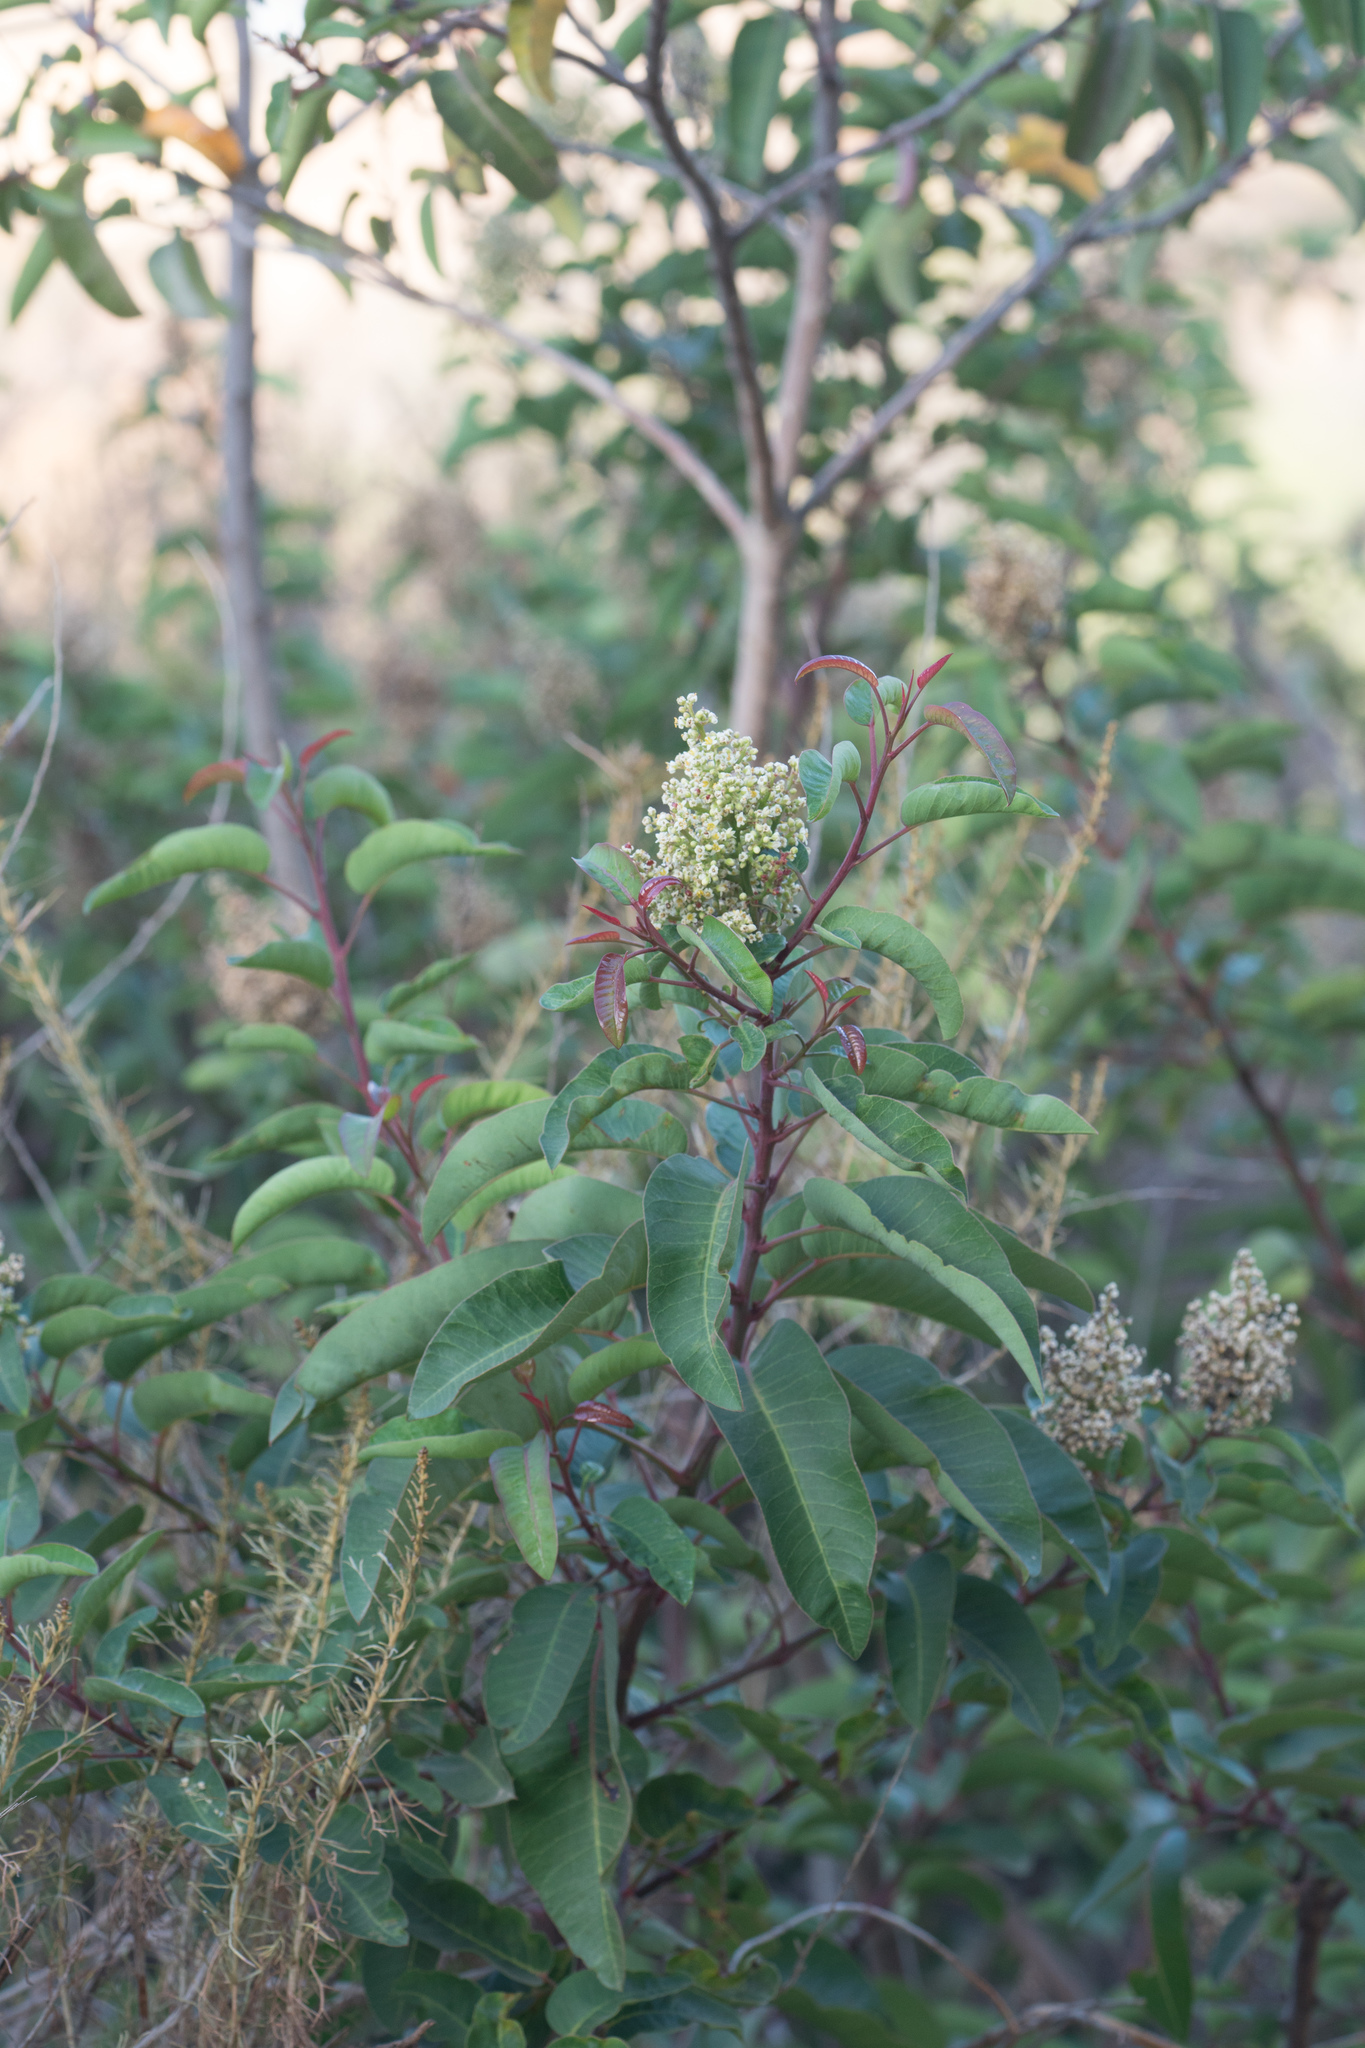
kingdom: Plantae
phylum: Tracheophyta
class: Magnoliopsida
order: Sapindales
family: Anacardiaceae
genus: Malosma
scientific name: Malosma laurina
